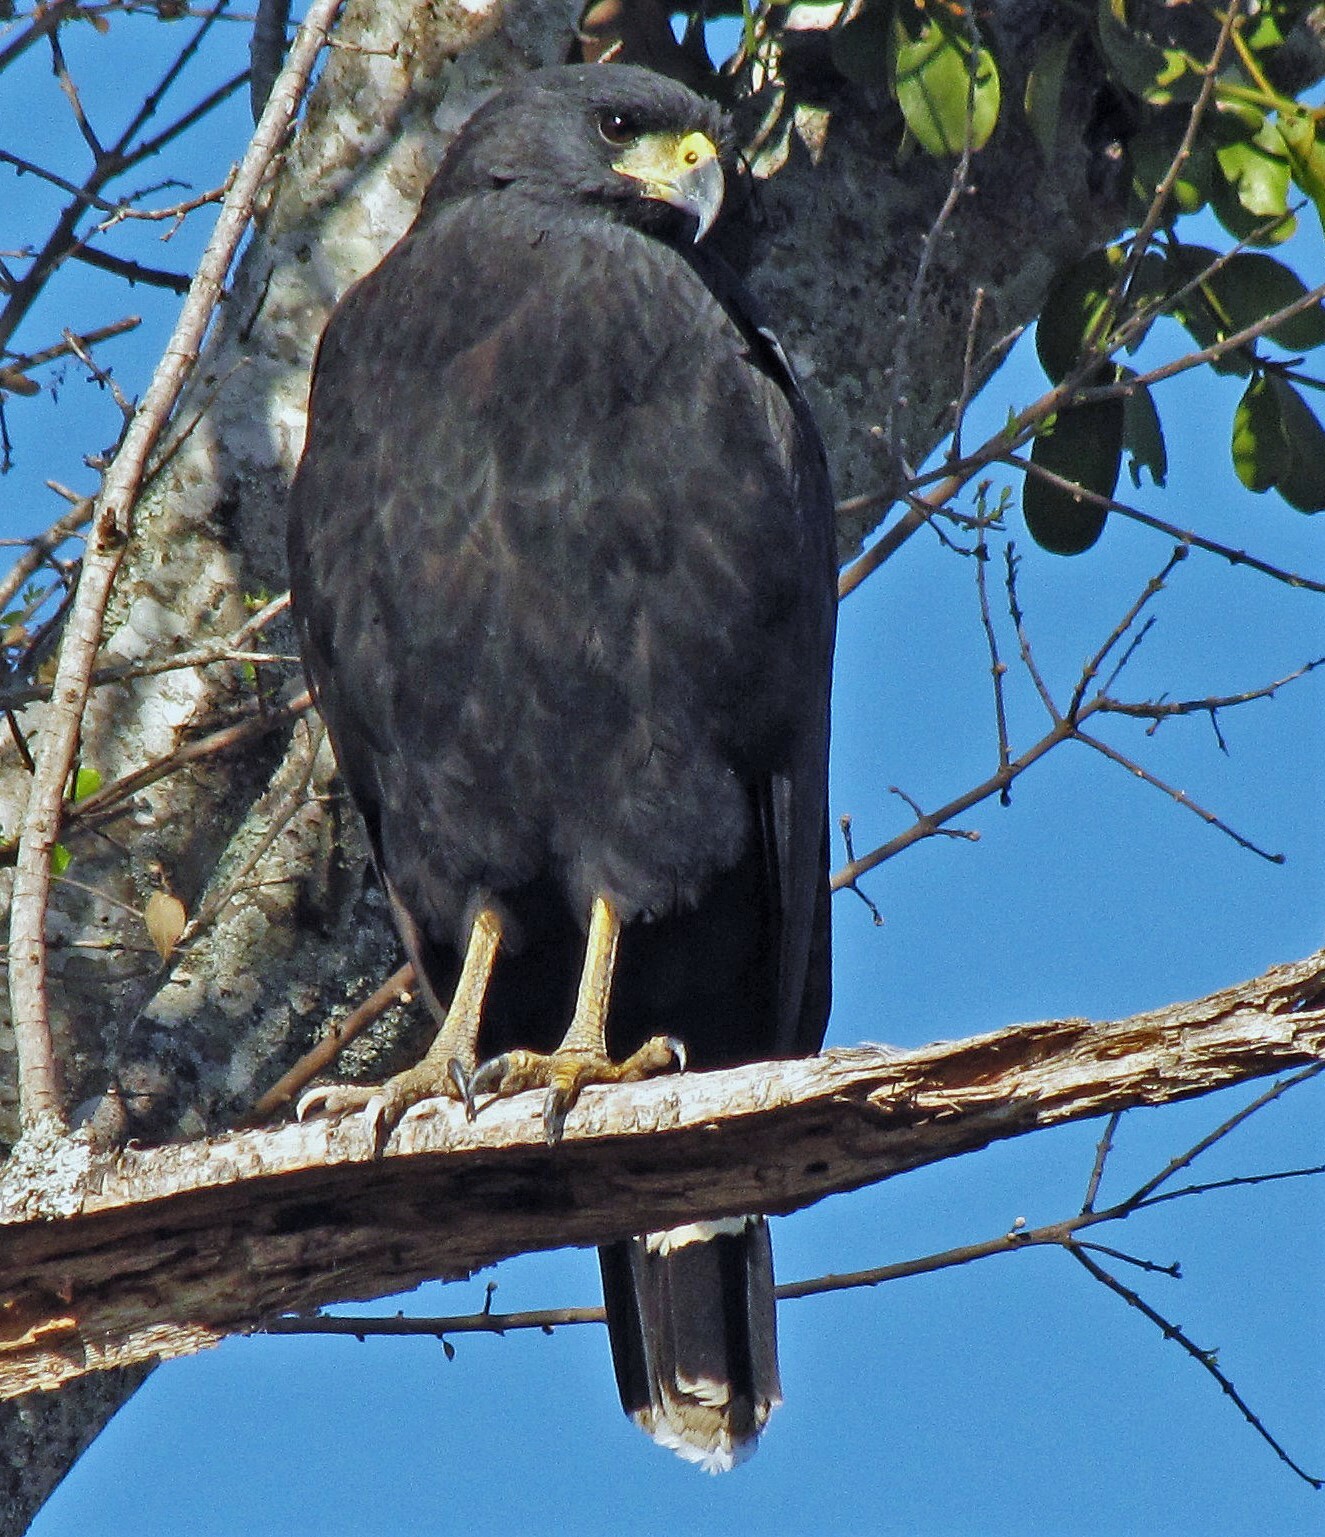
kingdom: Animalia
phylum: Chordata
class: Aves
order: Accipitriformes
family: Accipitridae
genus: Buteogallus
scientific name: Buteogallus urubitinga
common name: Great black hawk
